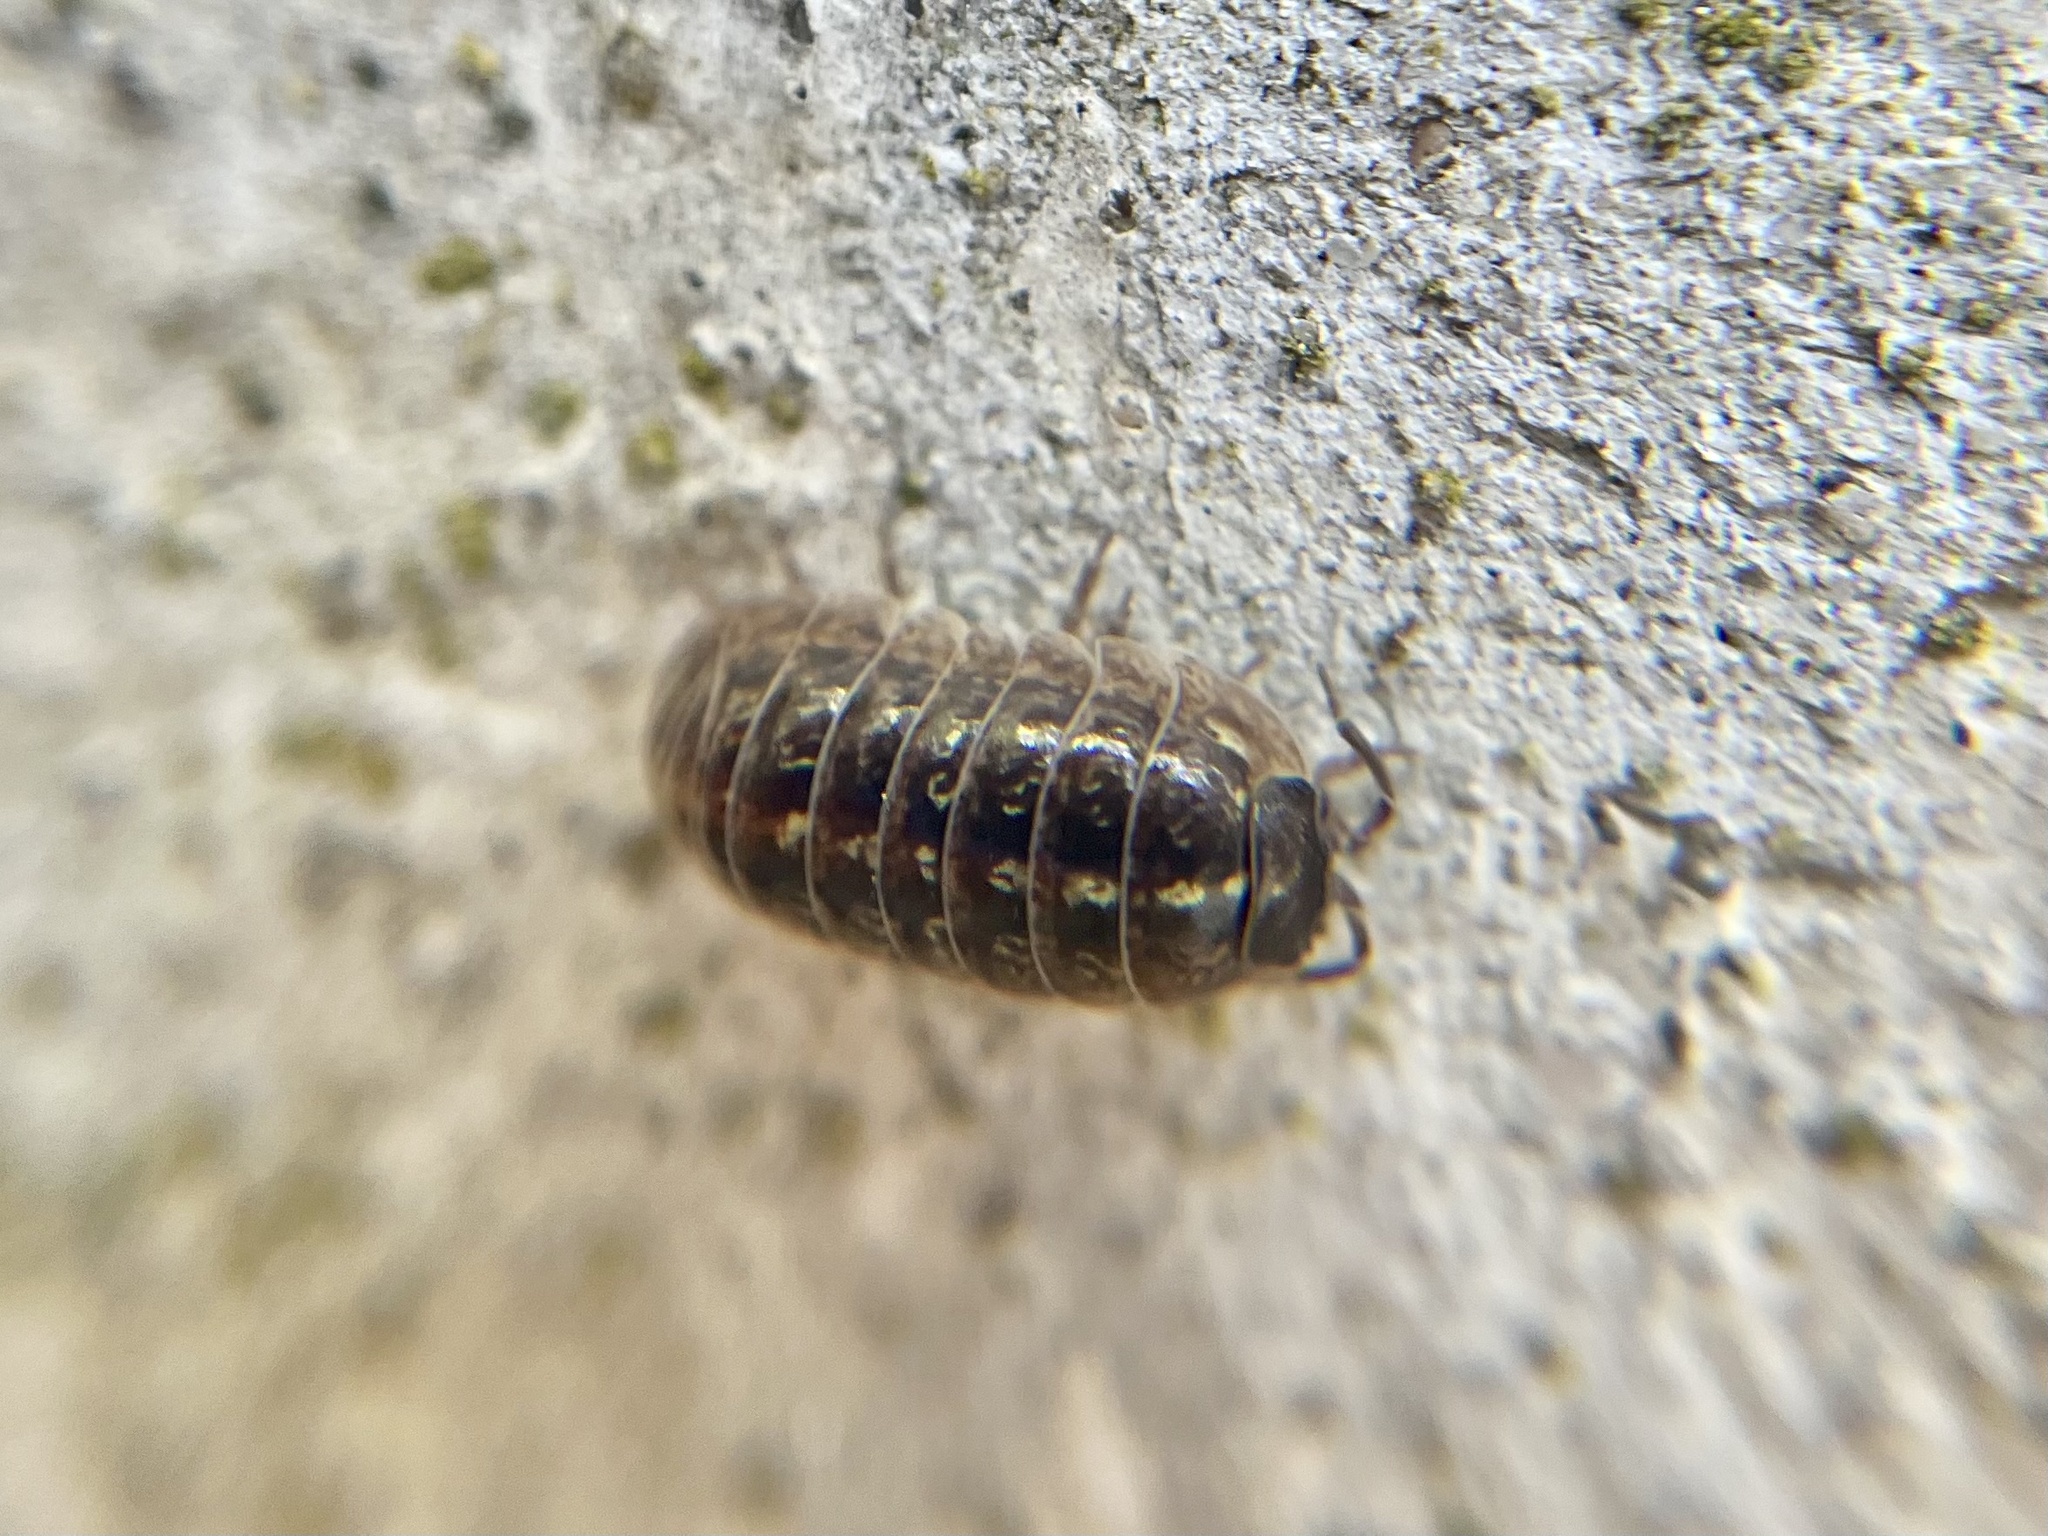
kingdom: Animalia
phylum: Arthropoda
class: Malacostraca
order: Isopoda
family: Armadillidiidae
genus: Armadillidium
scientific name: Armadillidium vulgare
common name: Common pill woodlouse
